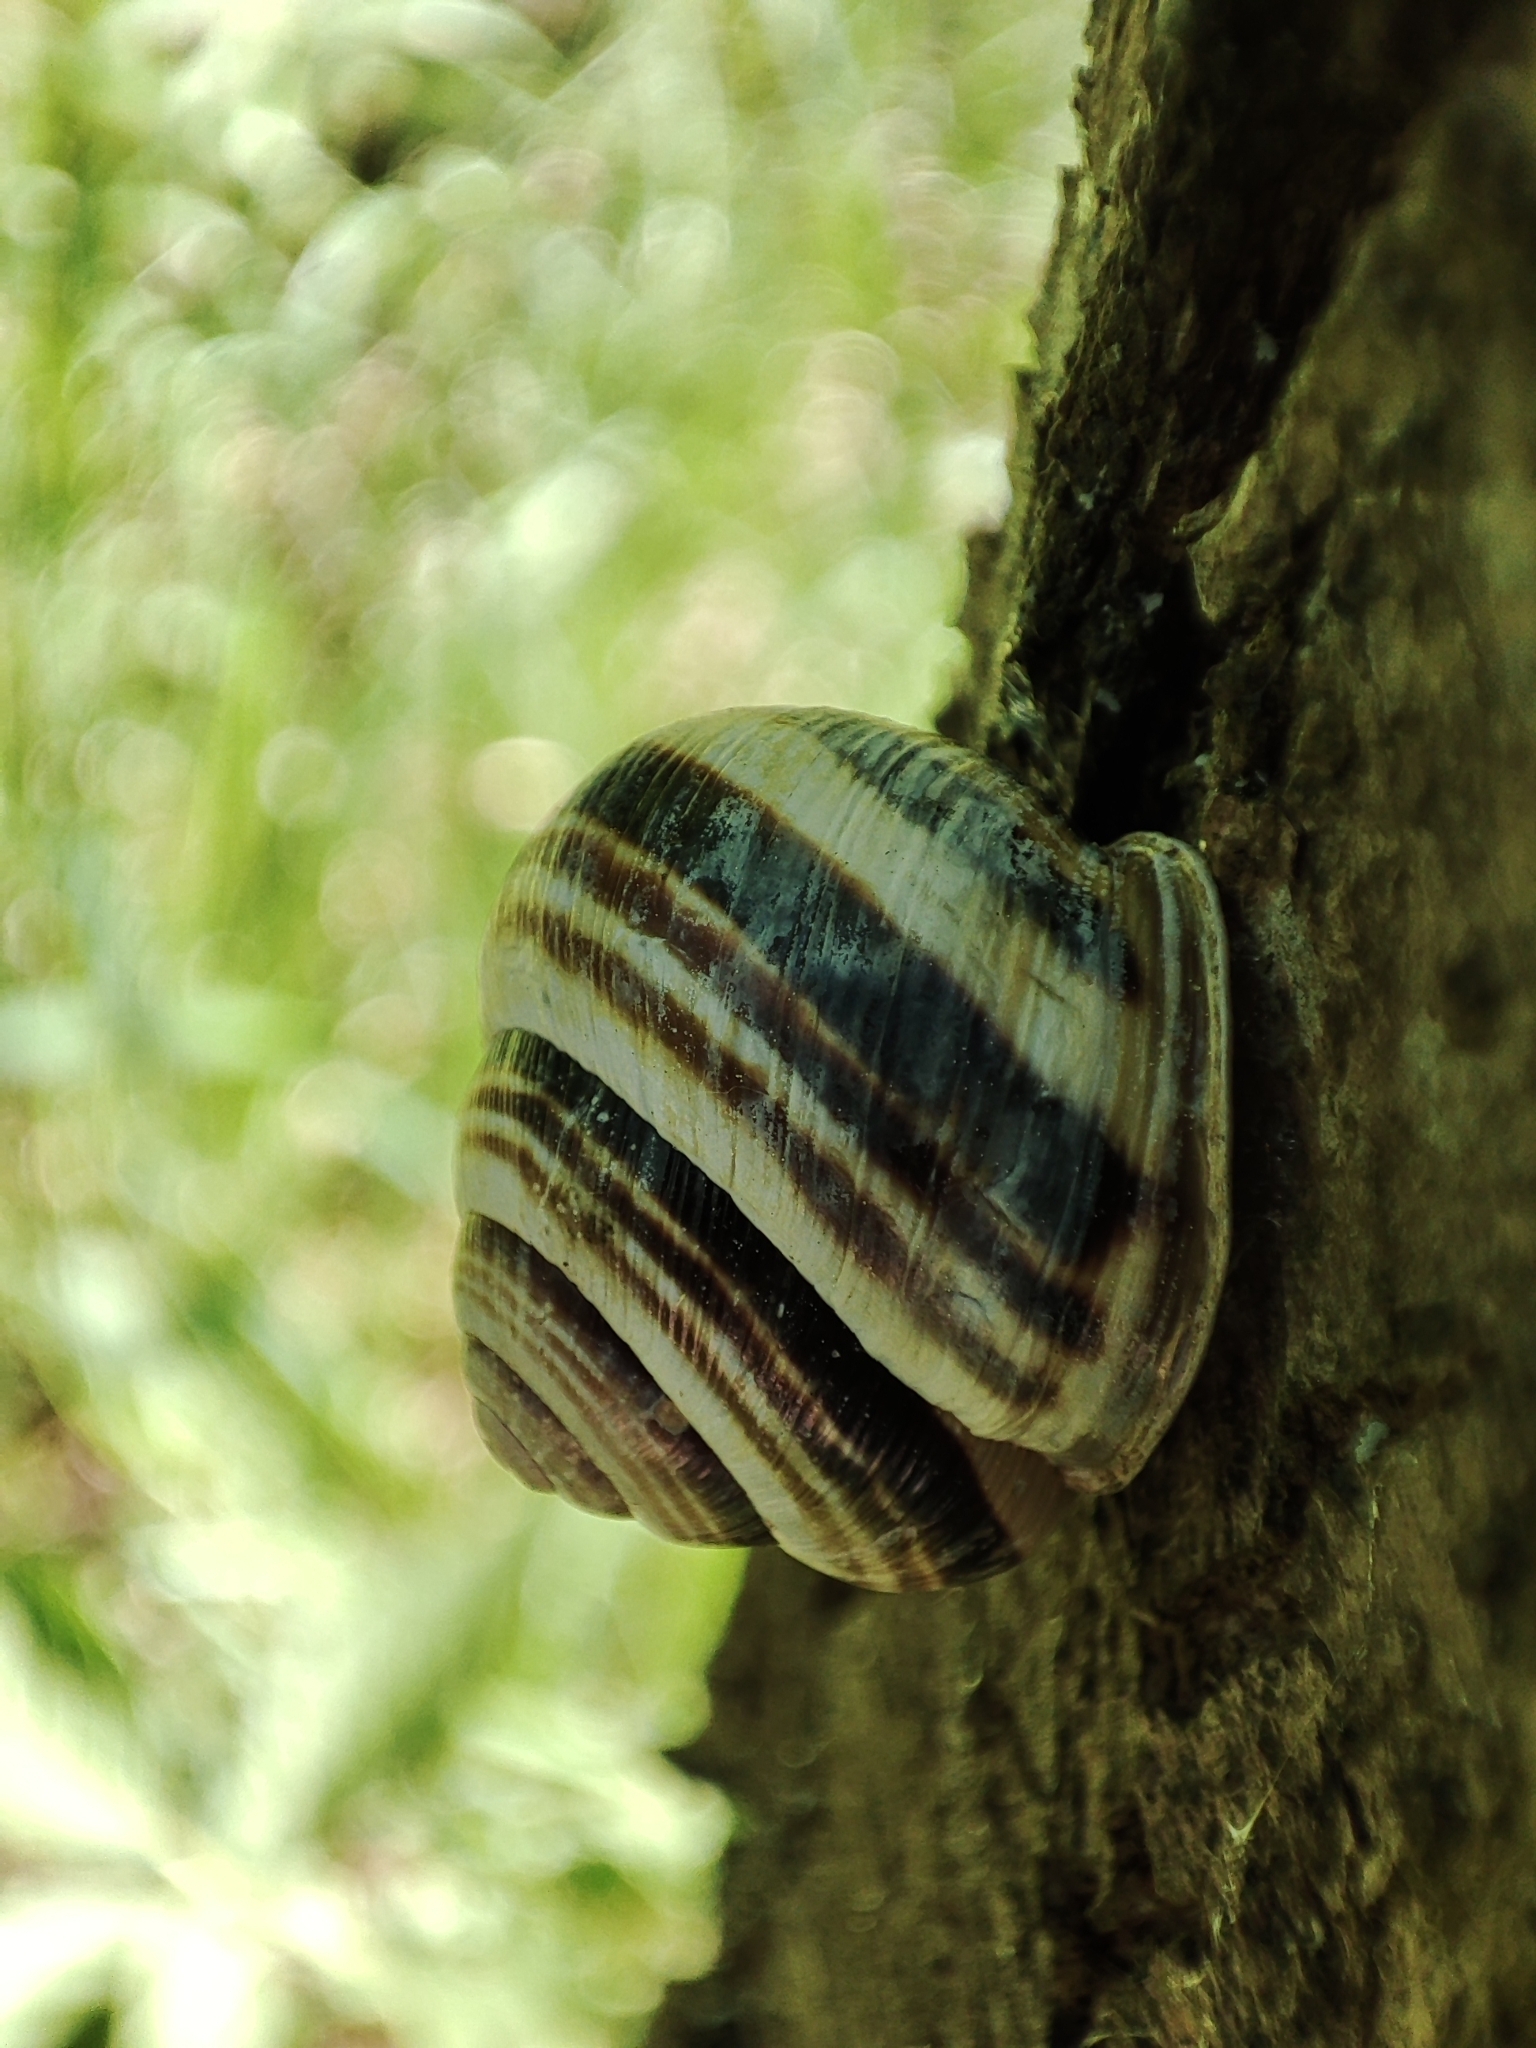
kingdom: Animalia
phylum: Mollusca
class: Gastropoda
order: Stylommatophora
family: Helicidae
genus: Caucasotachea
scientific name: Caucasotachea vindobonensis
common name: European helicid land snail
